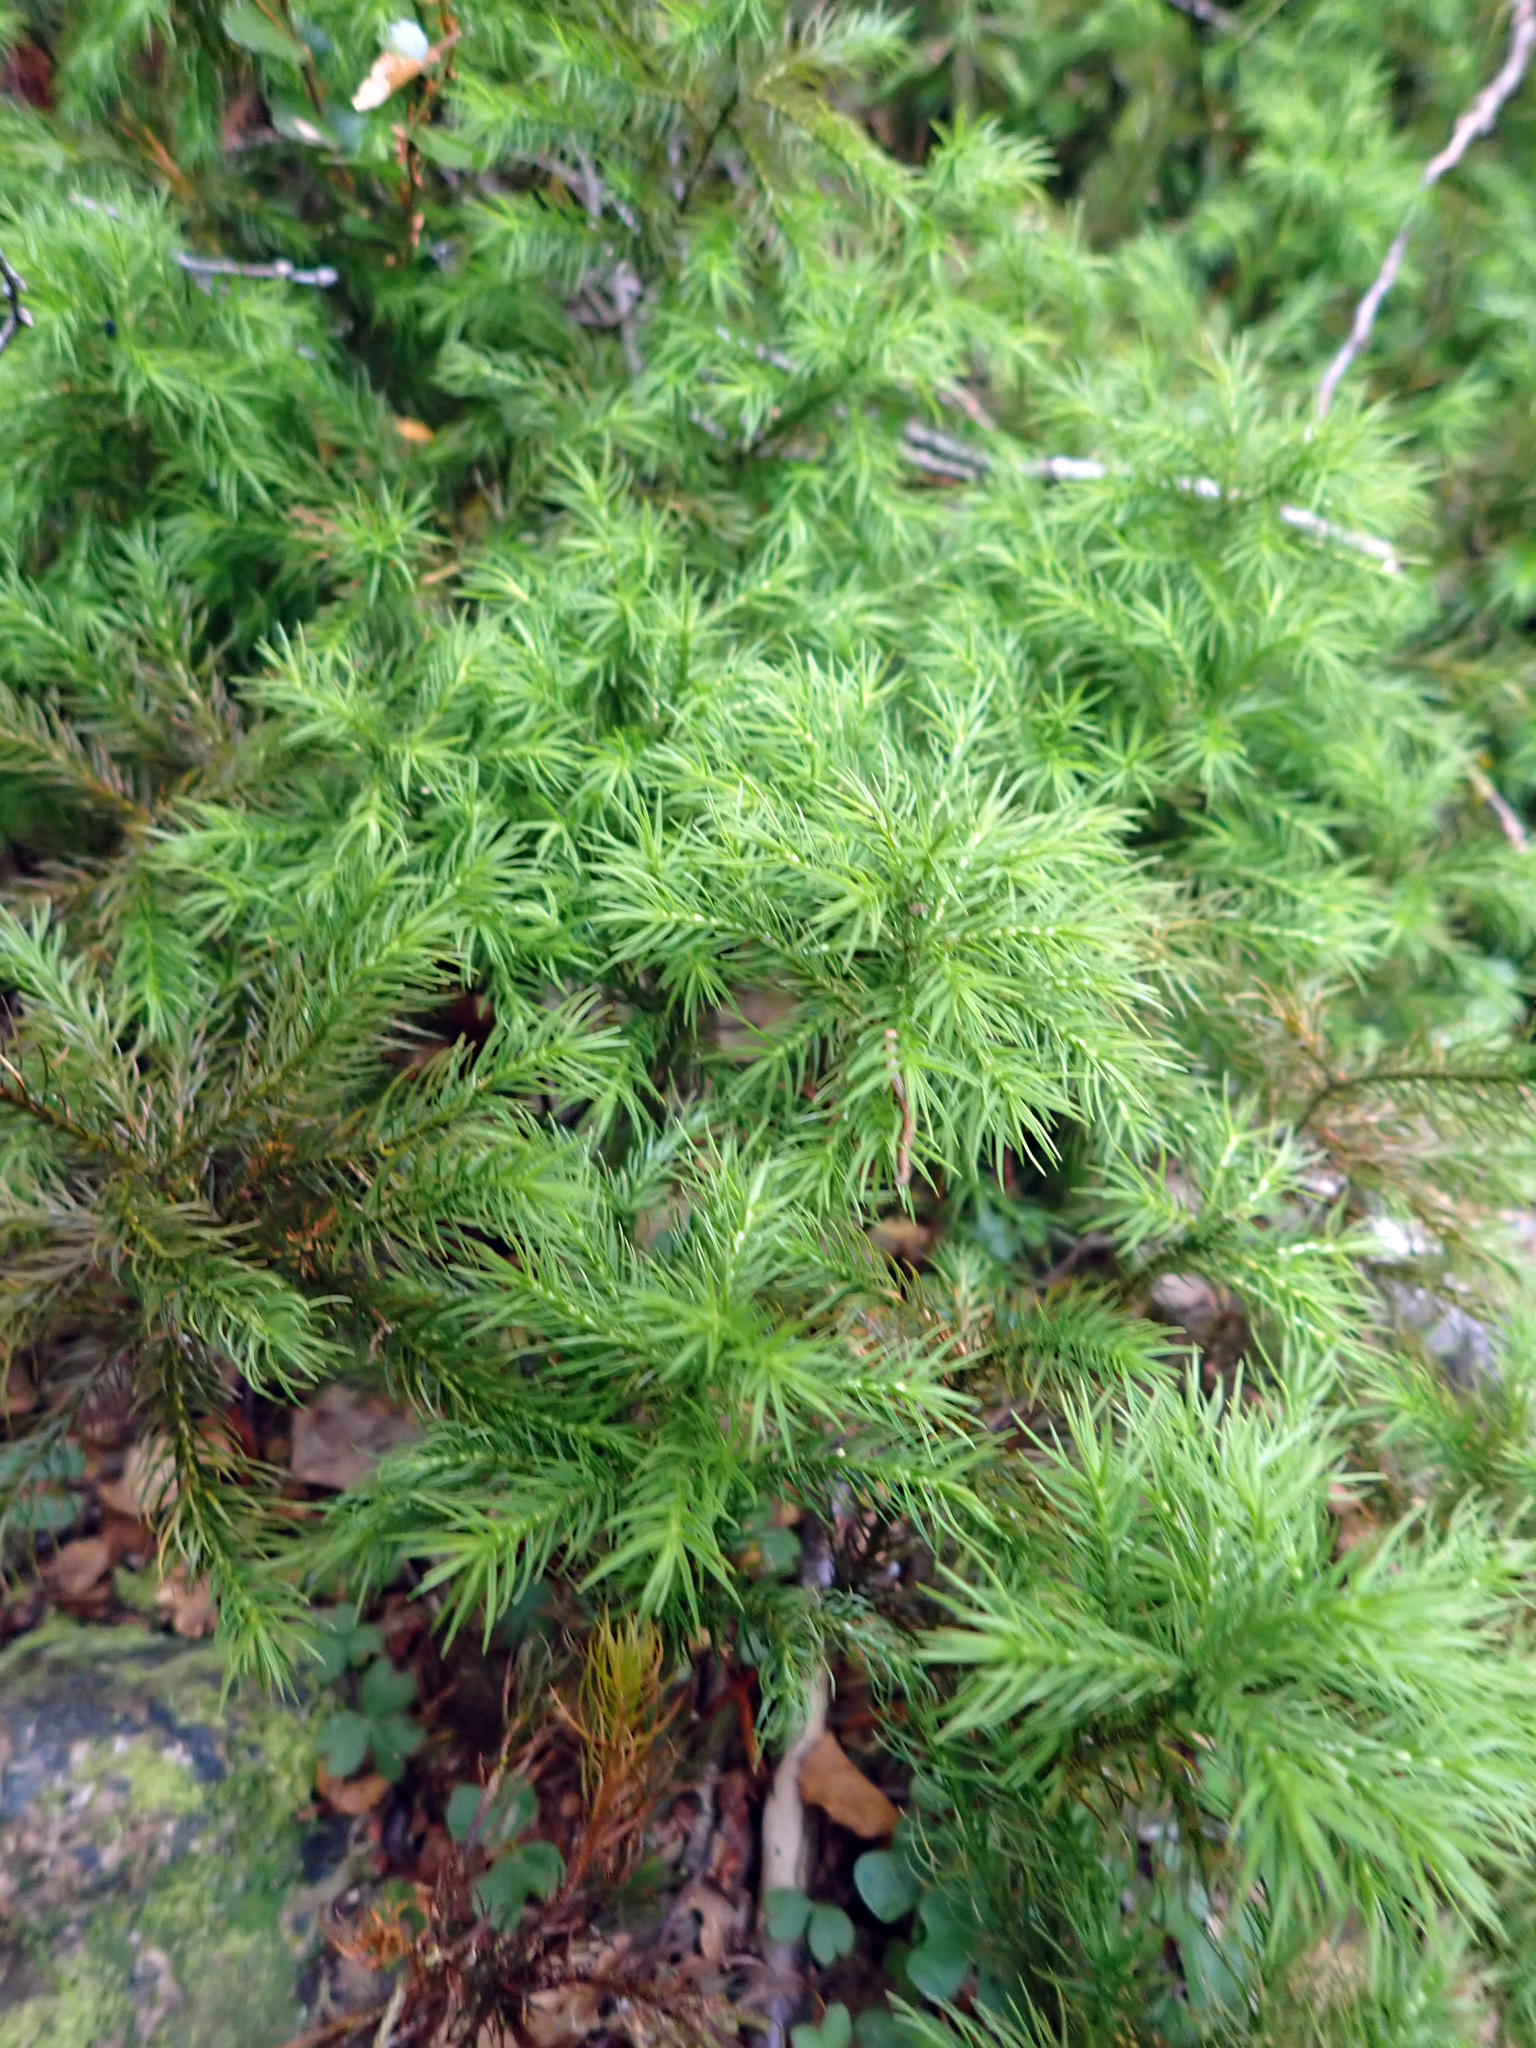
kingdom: Plantae
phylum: Bryophyta
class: Polytrichopsida
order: Polytrichales
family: Polytrichaceae
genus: Dendroligotrichum
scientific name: Dendroligotrichum tongariroense
